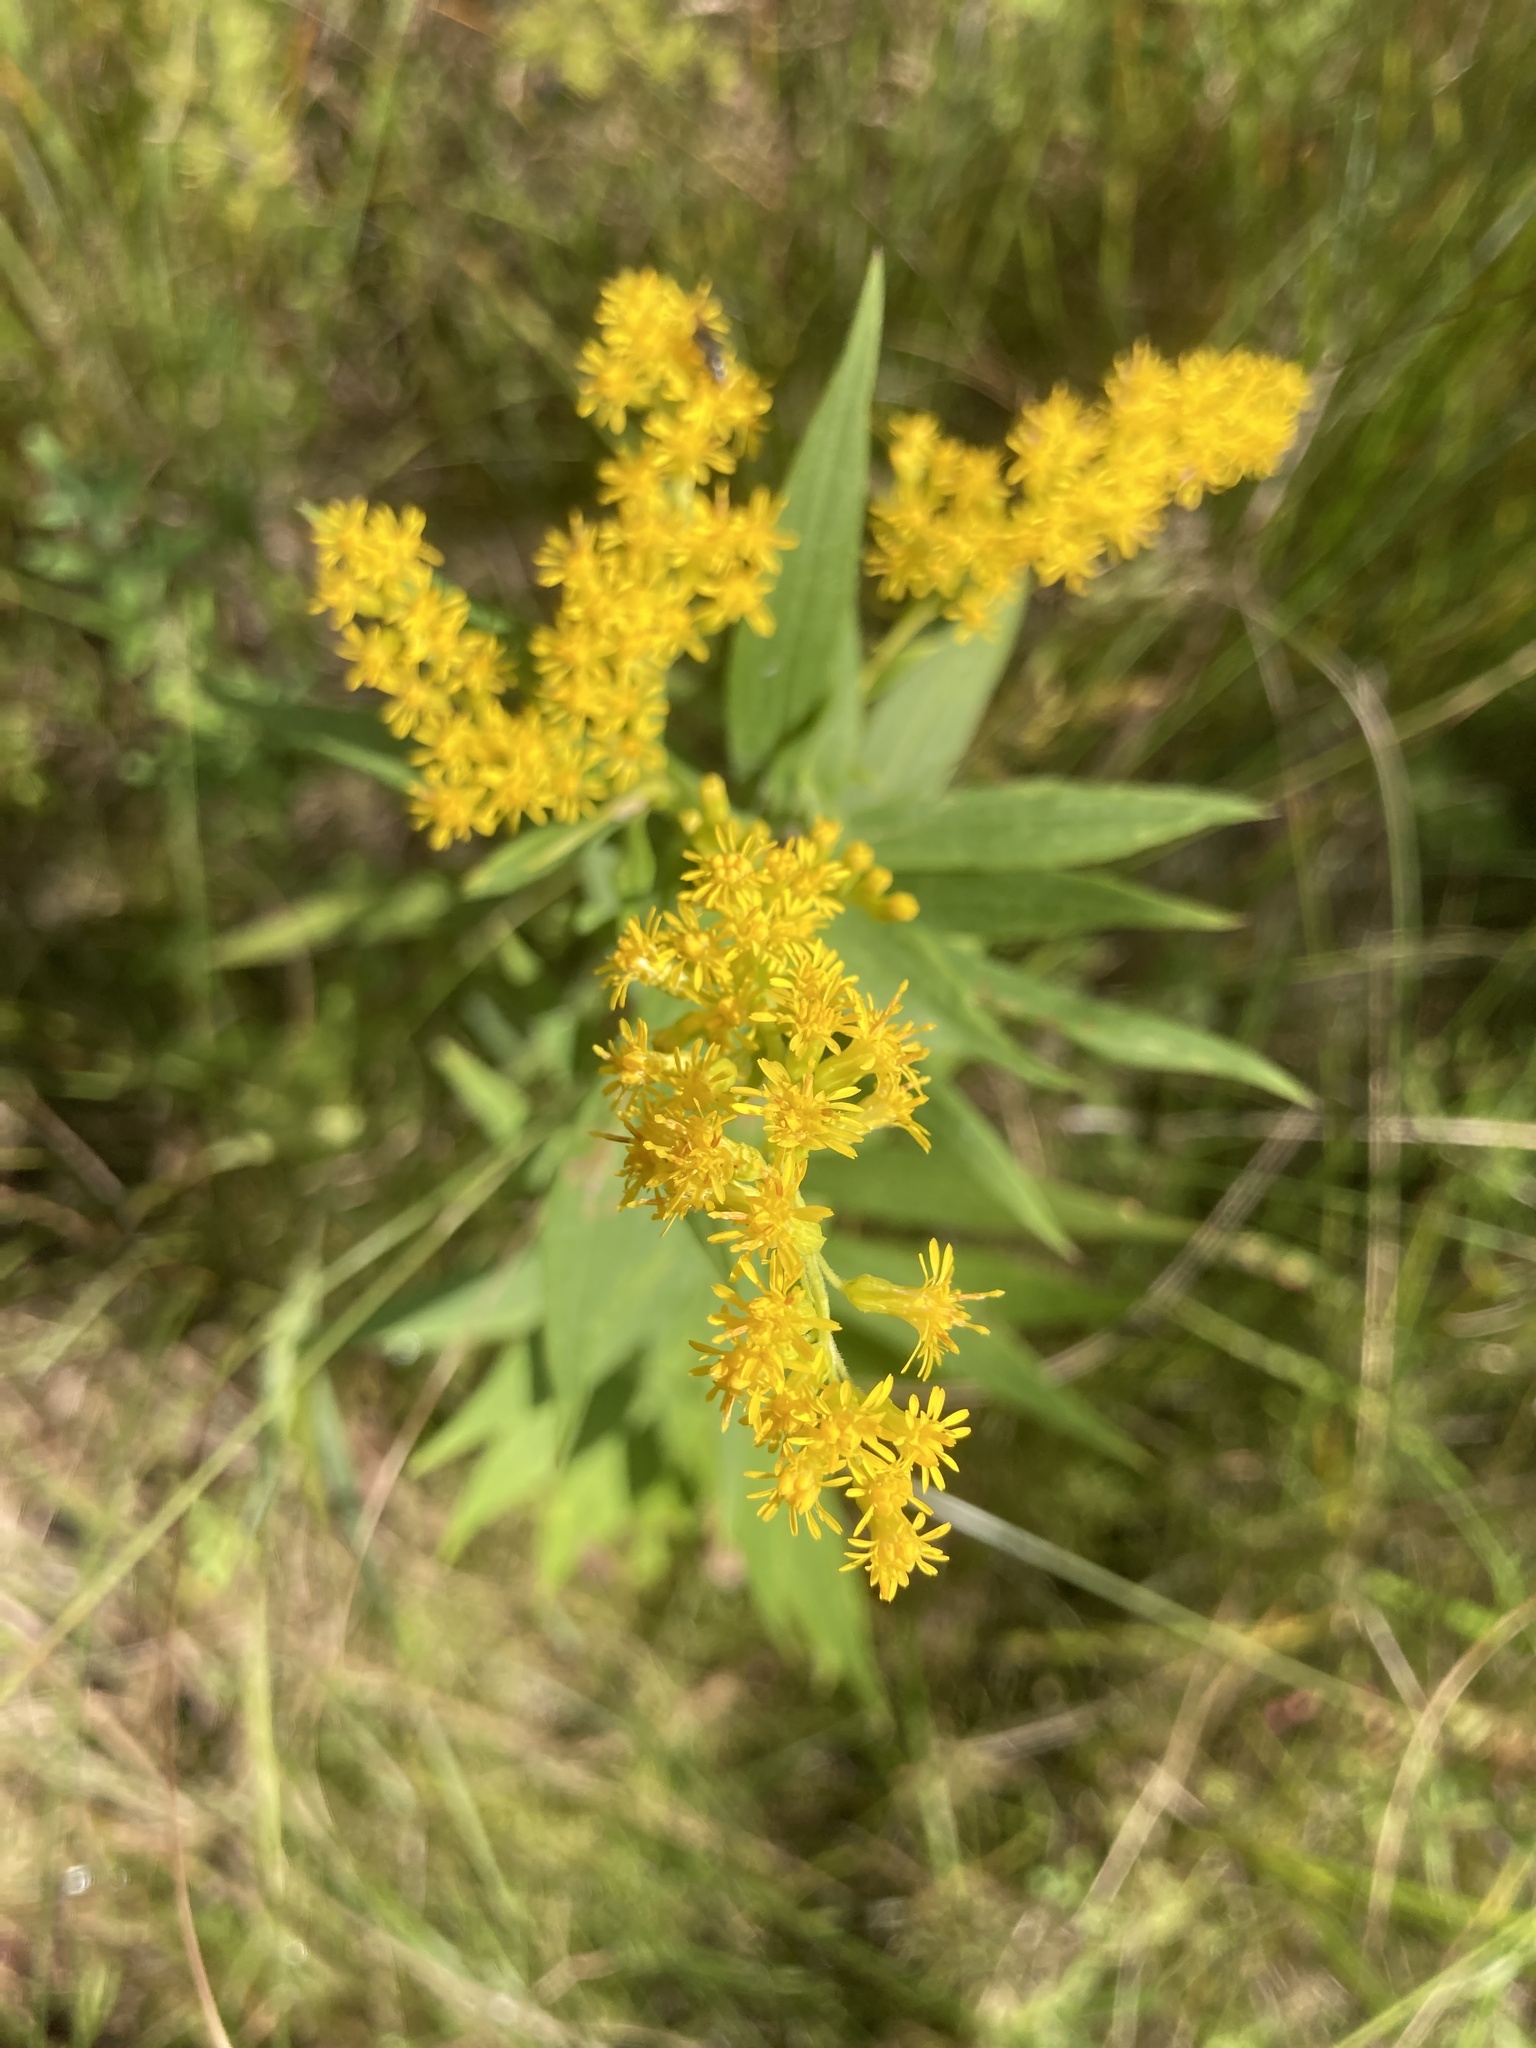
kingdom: Plantae
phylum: Tracheophyta
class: Magnoliopsida
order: Asterales
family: Asteraceae
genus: Solidago
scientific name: Solidago altissima
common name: Late goldenrod
